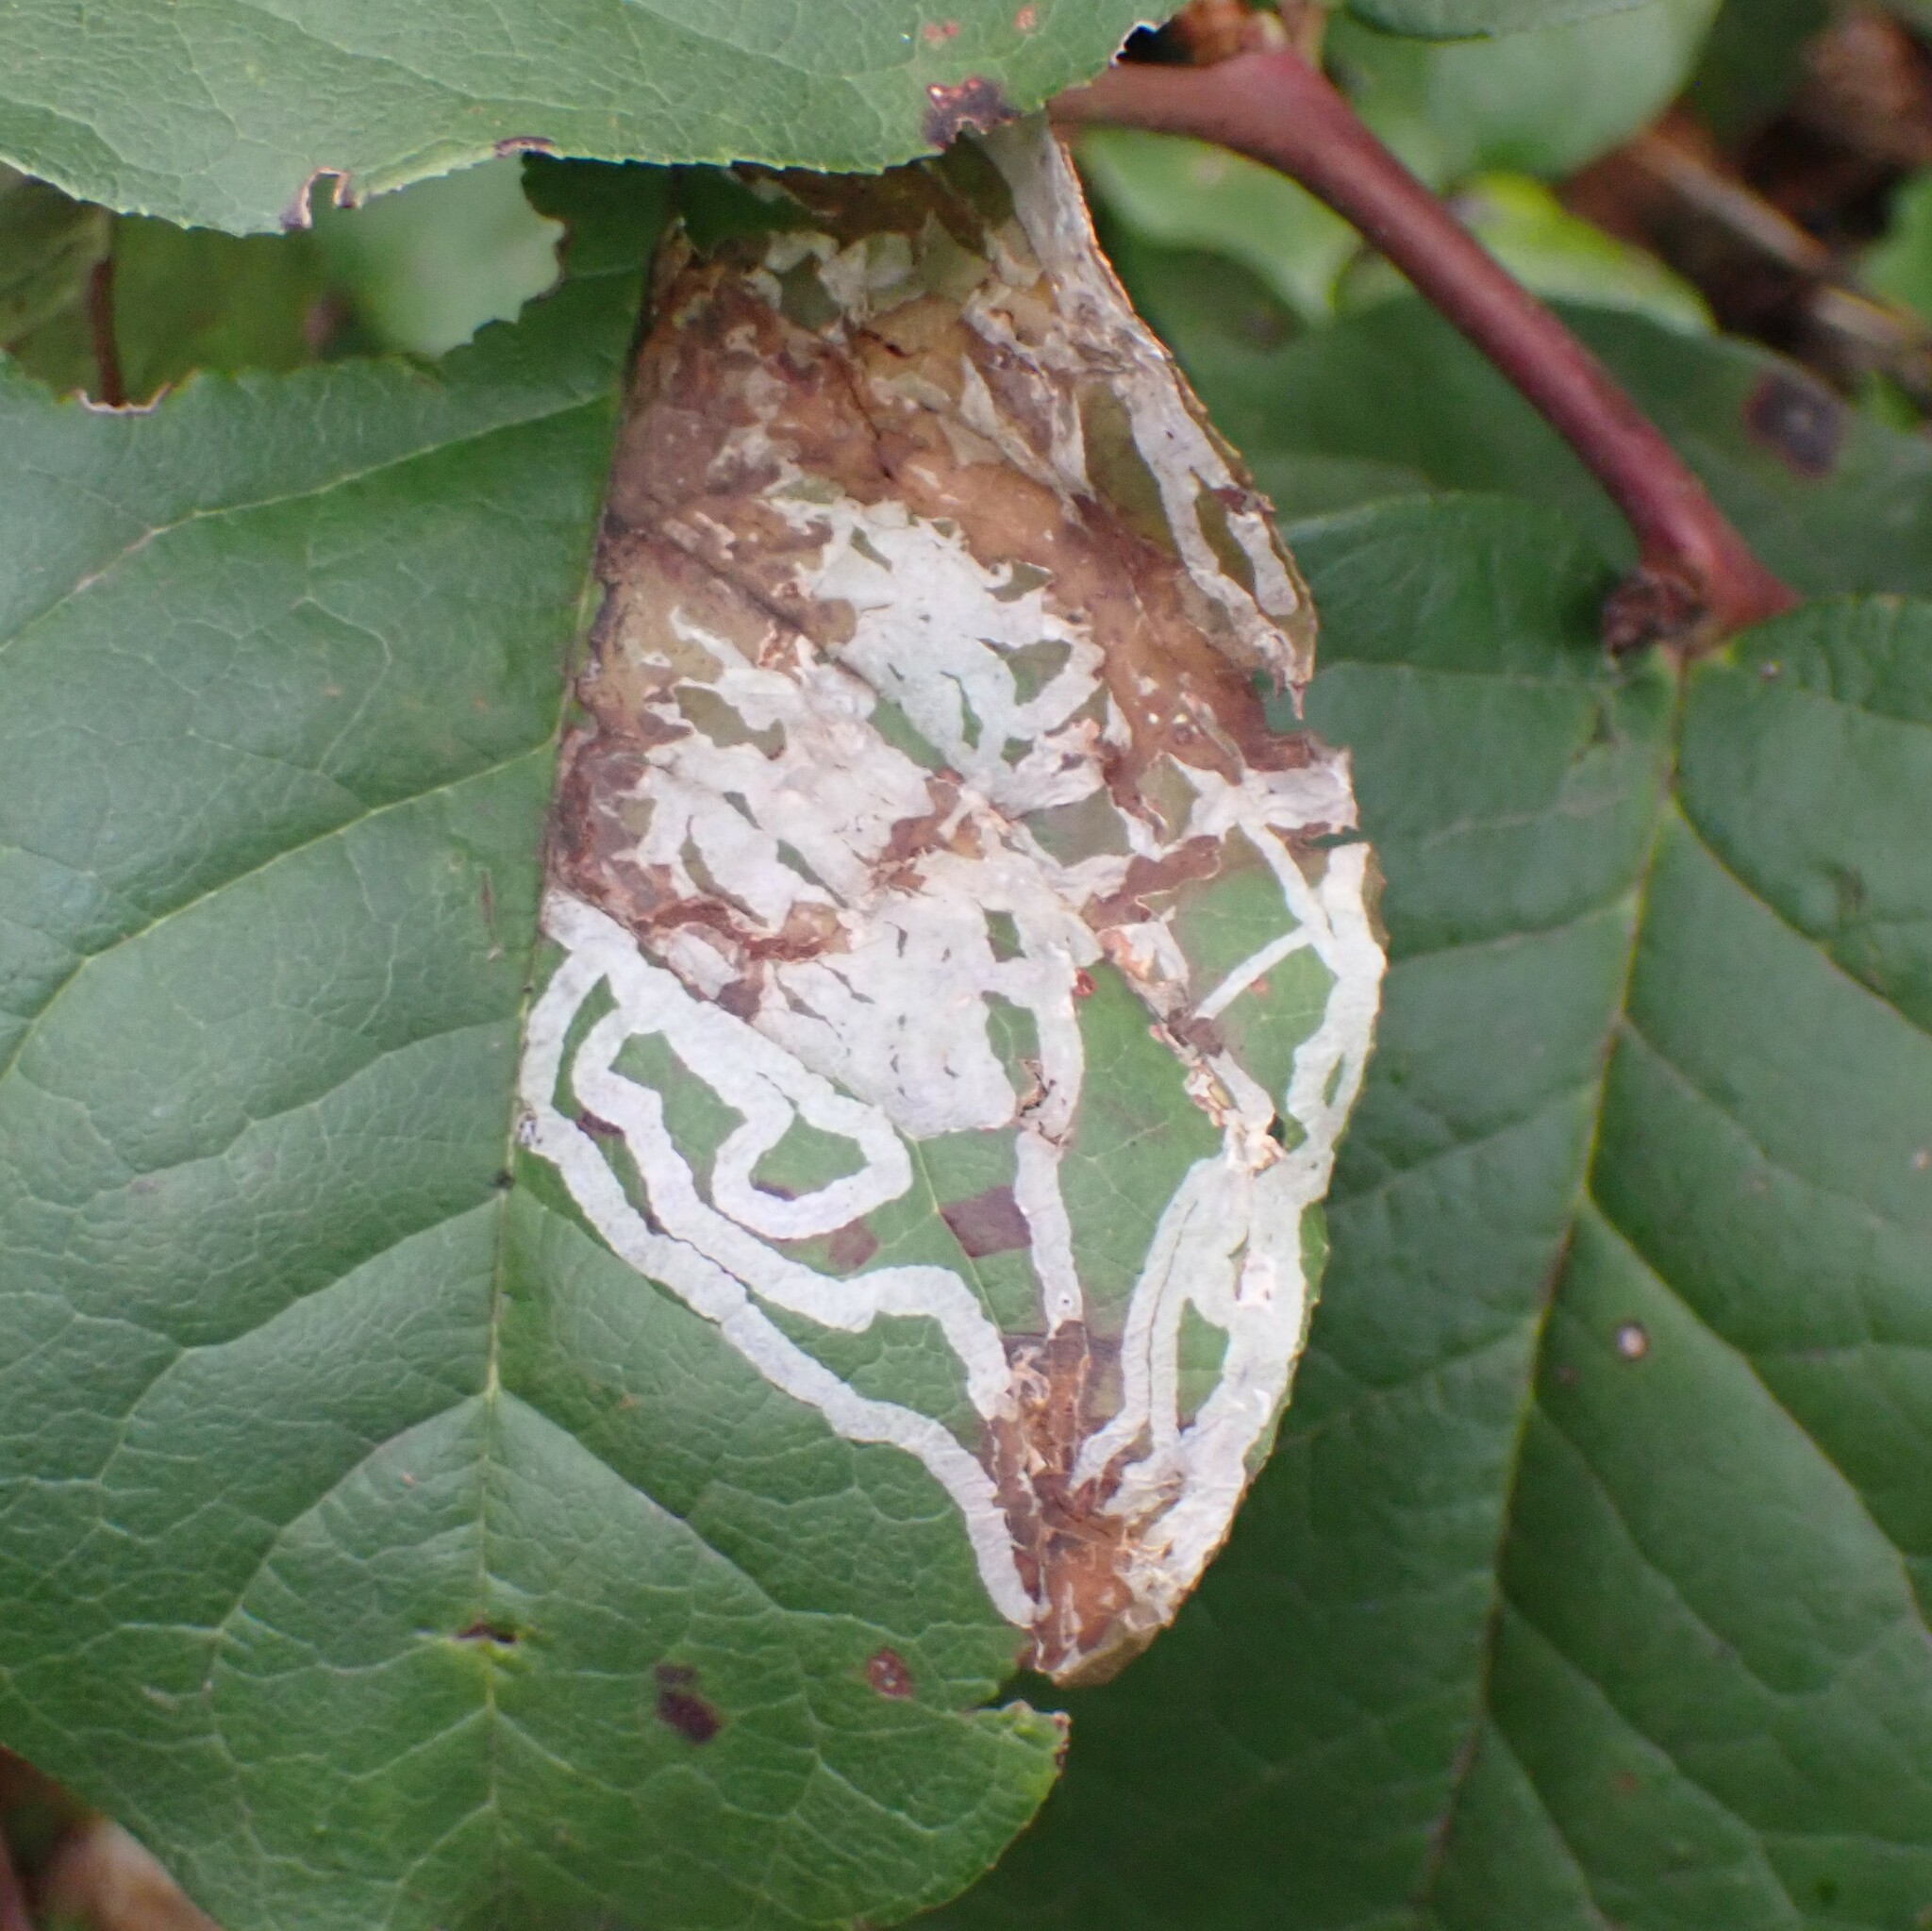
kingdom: Animalia
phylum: Arthropoda
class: Insecta
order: Lepidoptera
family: Gracillariidae
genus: Marmara
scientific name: Marmara arbutiella
